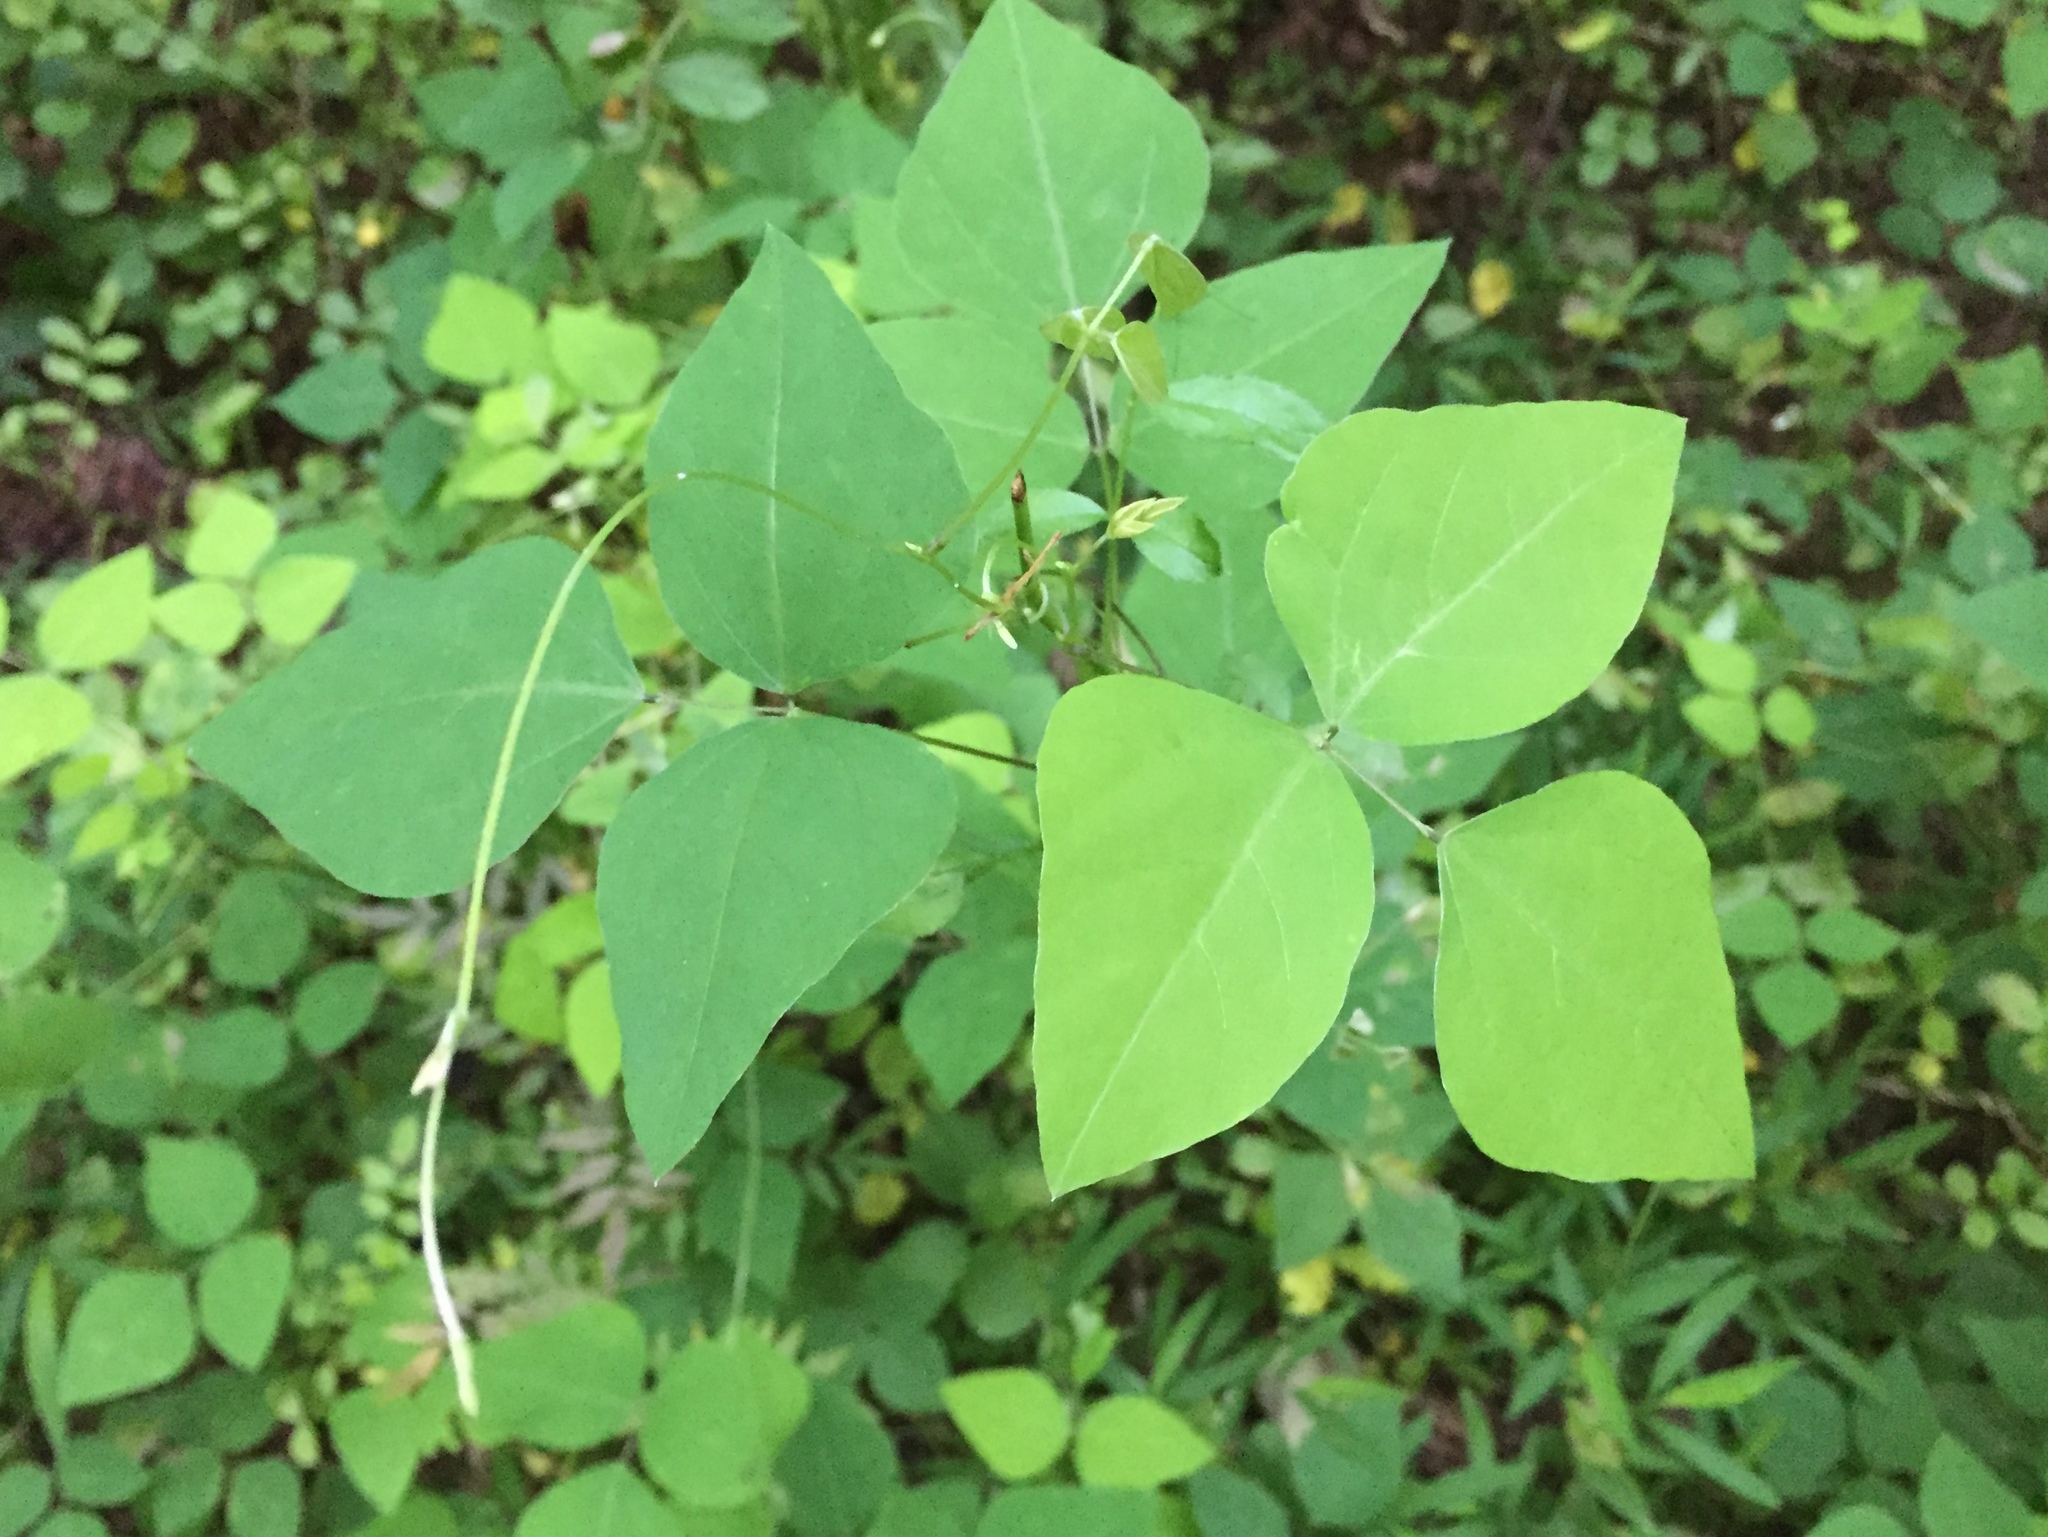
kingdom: Plantae
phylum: Tracheophyta
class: Magnoliopsida
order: Fabales
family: Fabaceae
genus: Amphicarpaea
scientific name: Amphicarpaea bracteata
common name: American hog peanut
